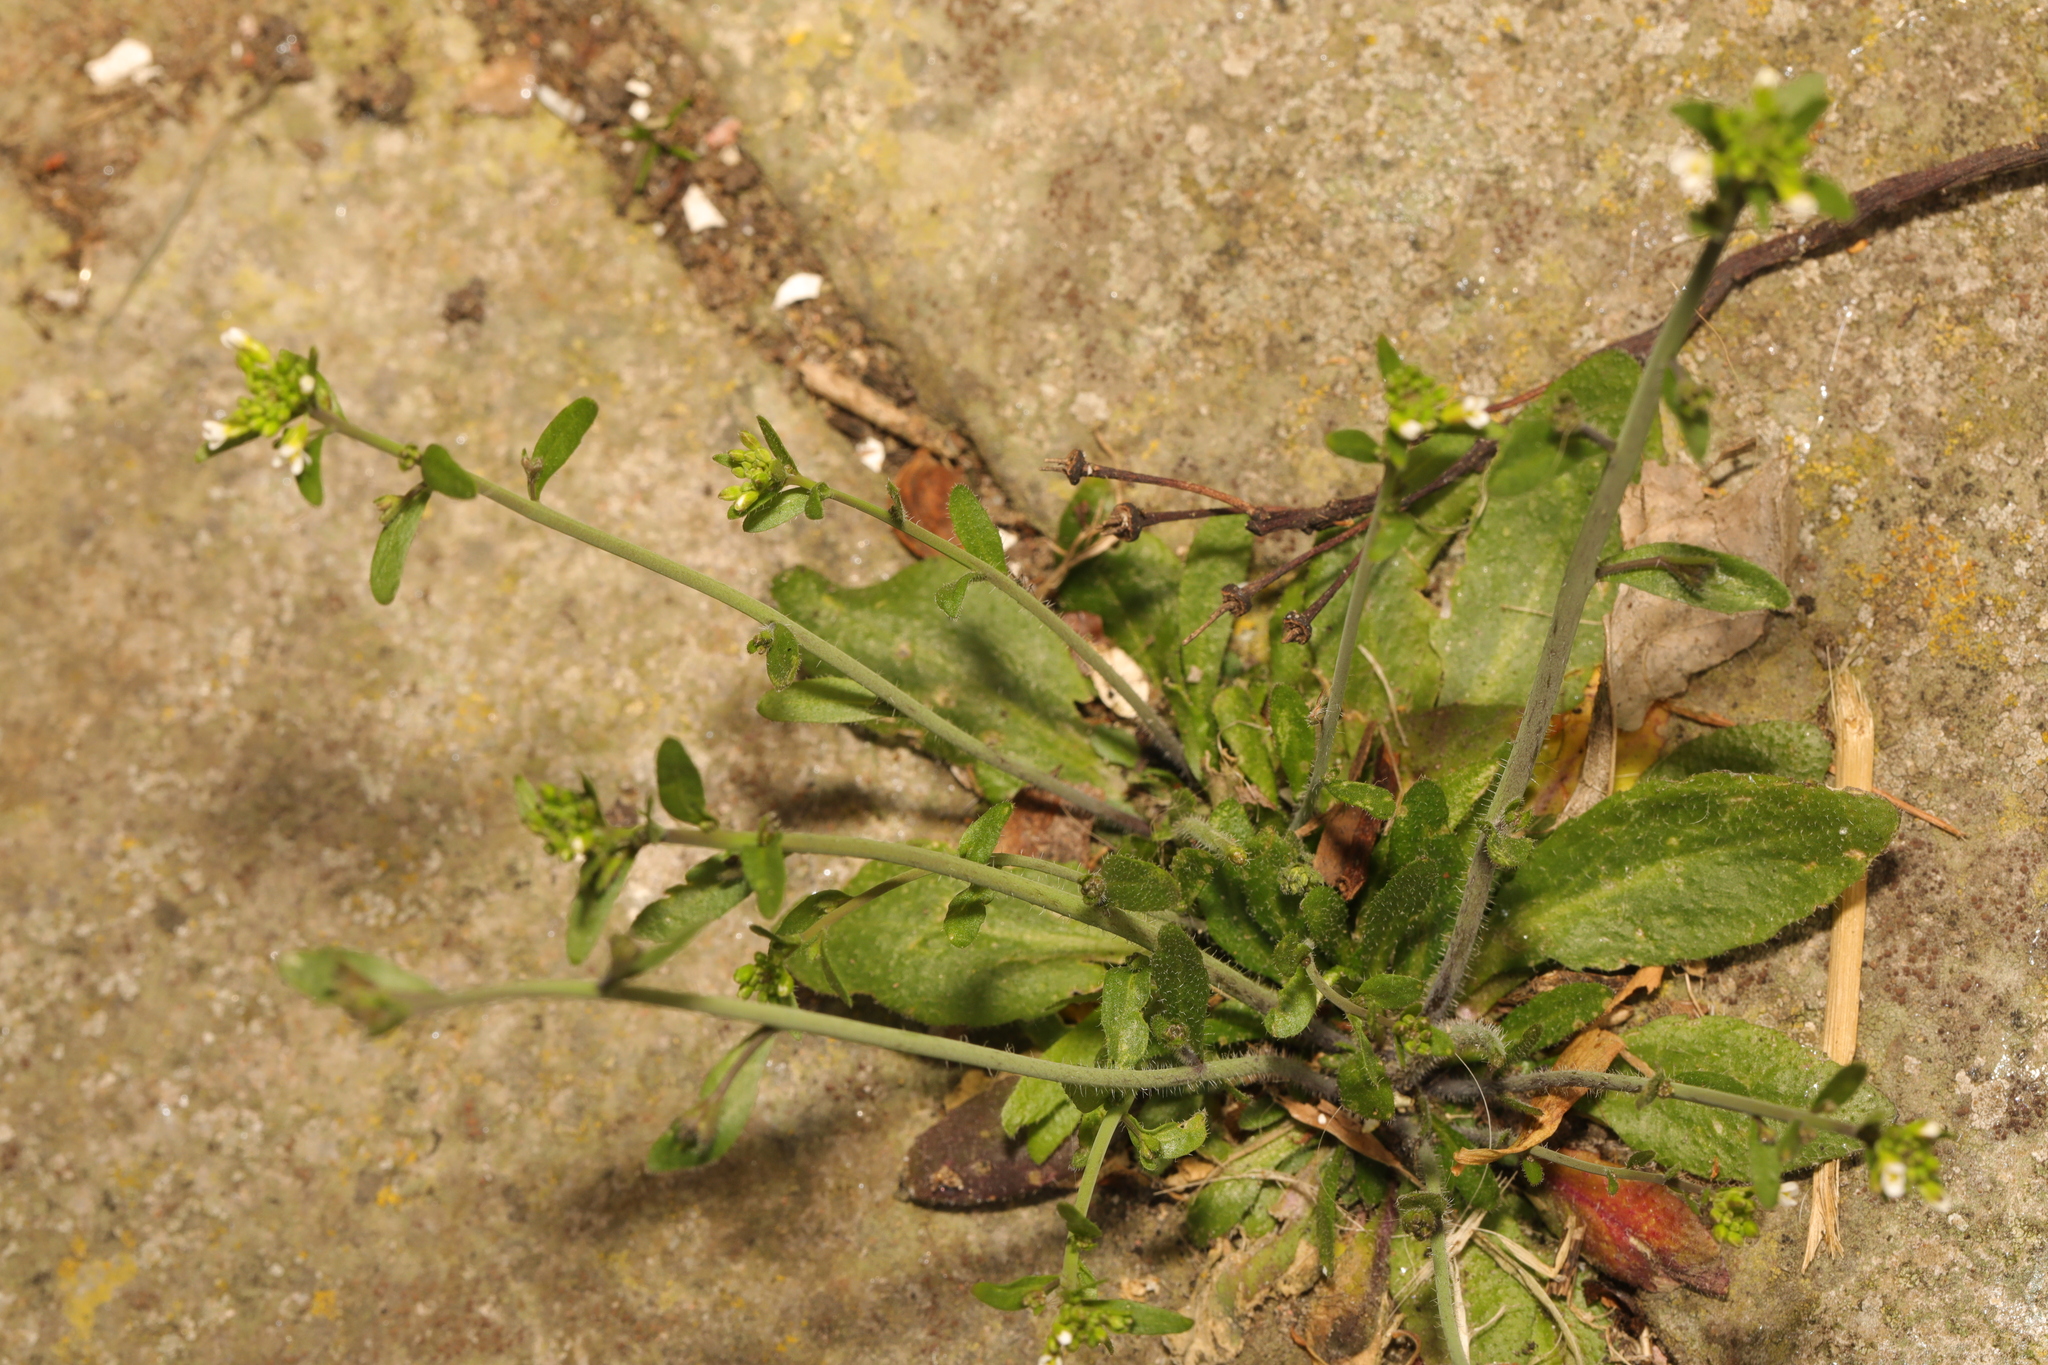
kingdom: Plantae
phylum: Tracheophyta
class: Magnoliopsida
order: Brassicales
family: Brassicaceae
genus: Arabidopsis
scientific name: Arabidopsis thaliana
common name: Thale cress
